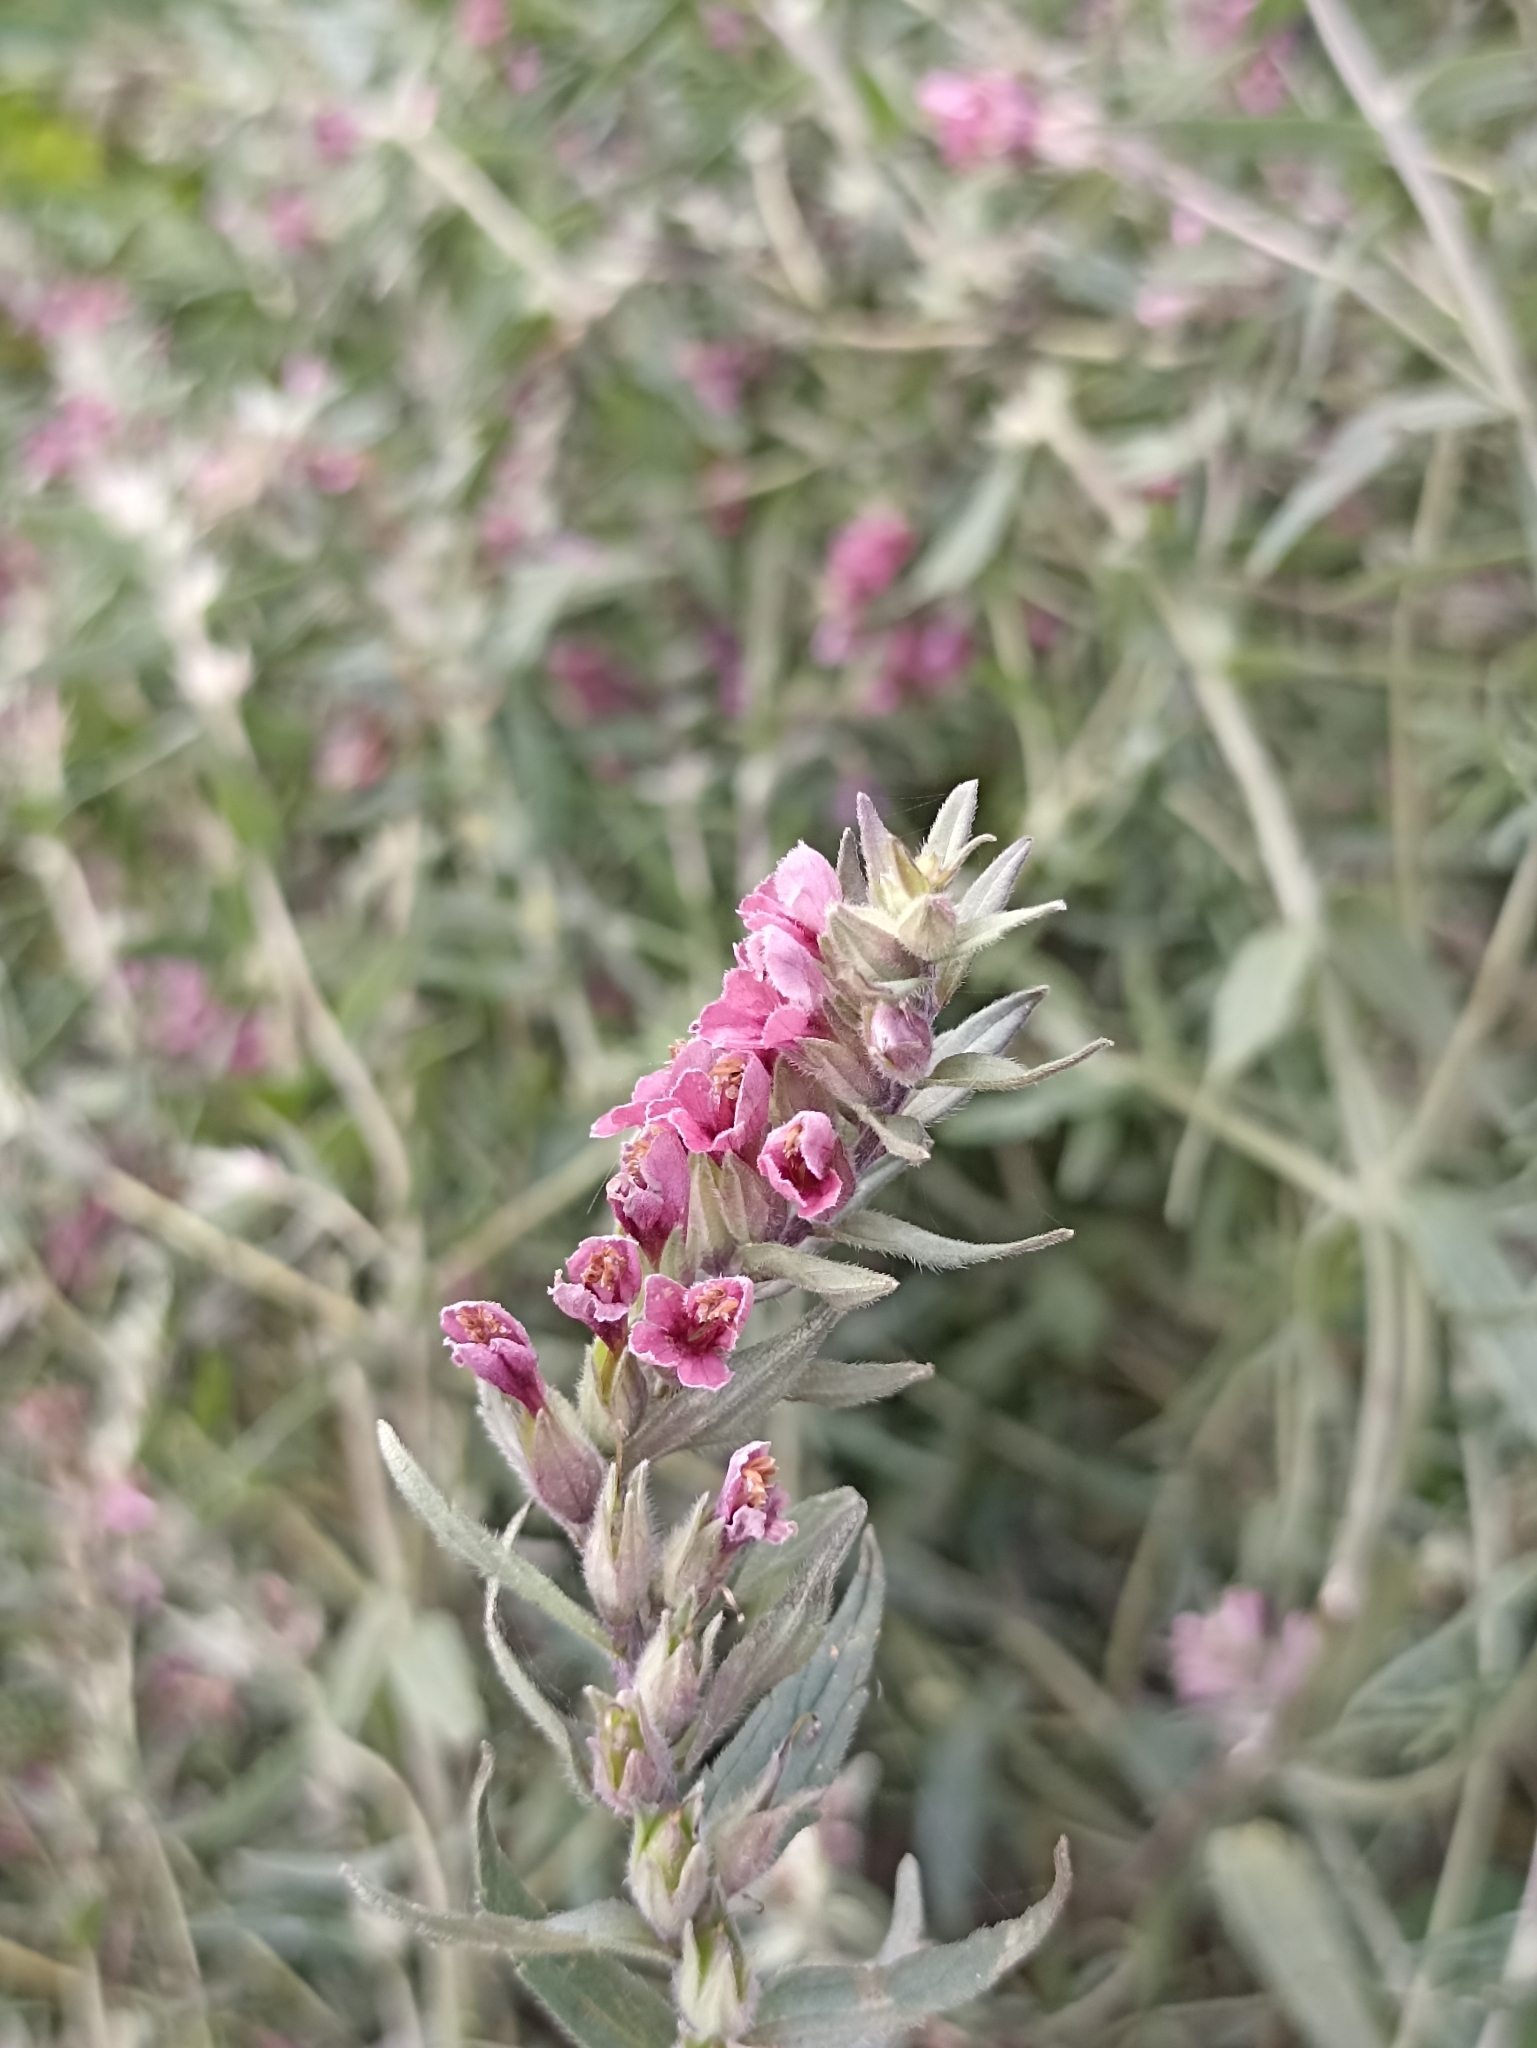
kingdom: Plantae
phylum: Tracheophyta
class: Magnoliopsida
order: Lamiales
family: Orobanchaceae
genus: Odontites
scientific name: Odontites vulgaris
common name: Broomrape
